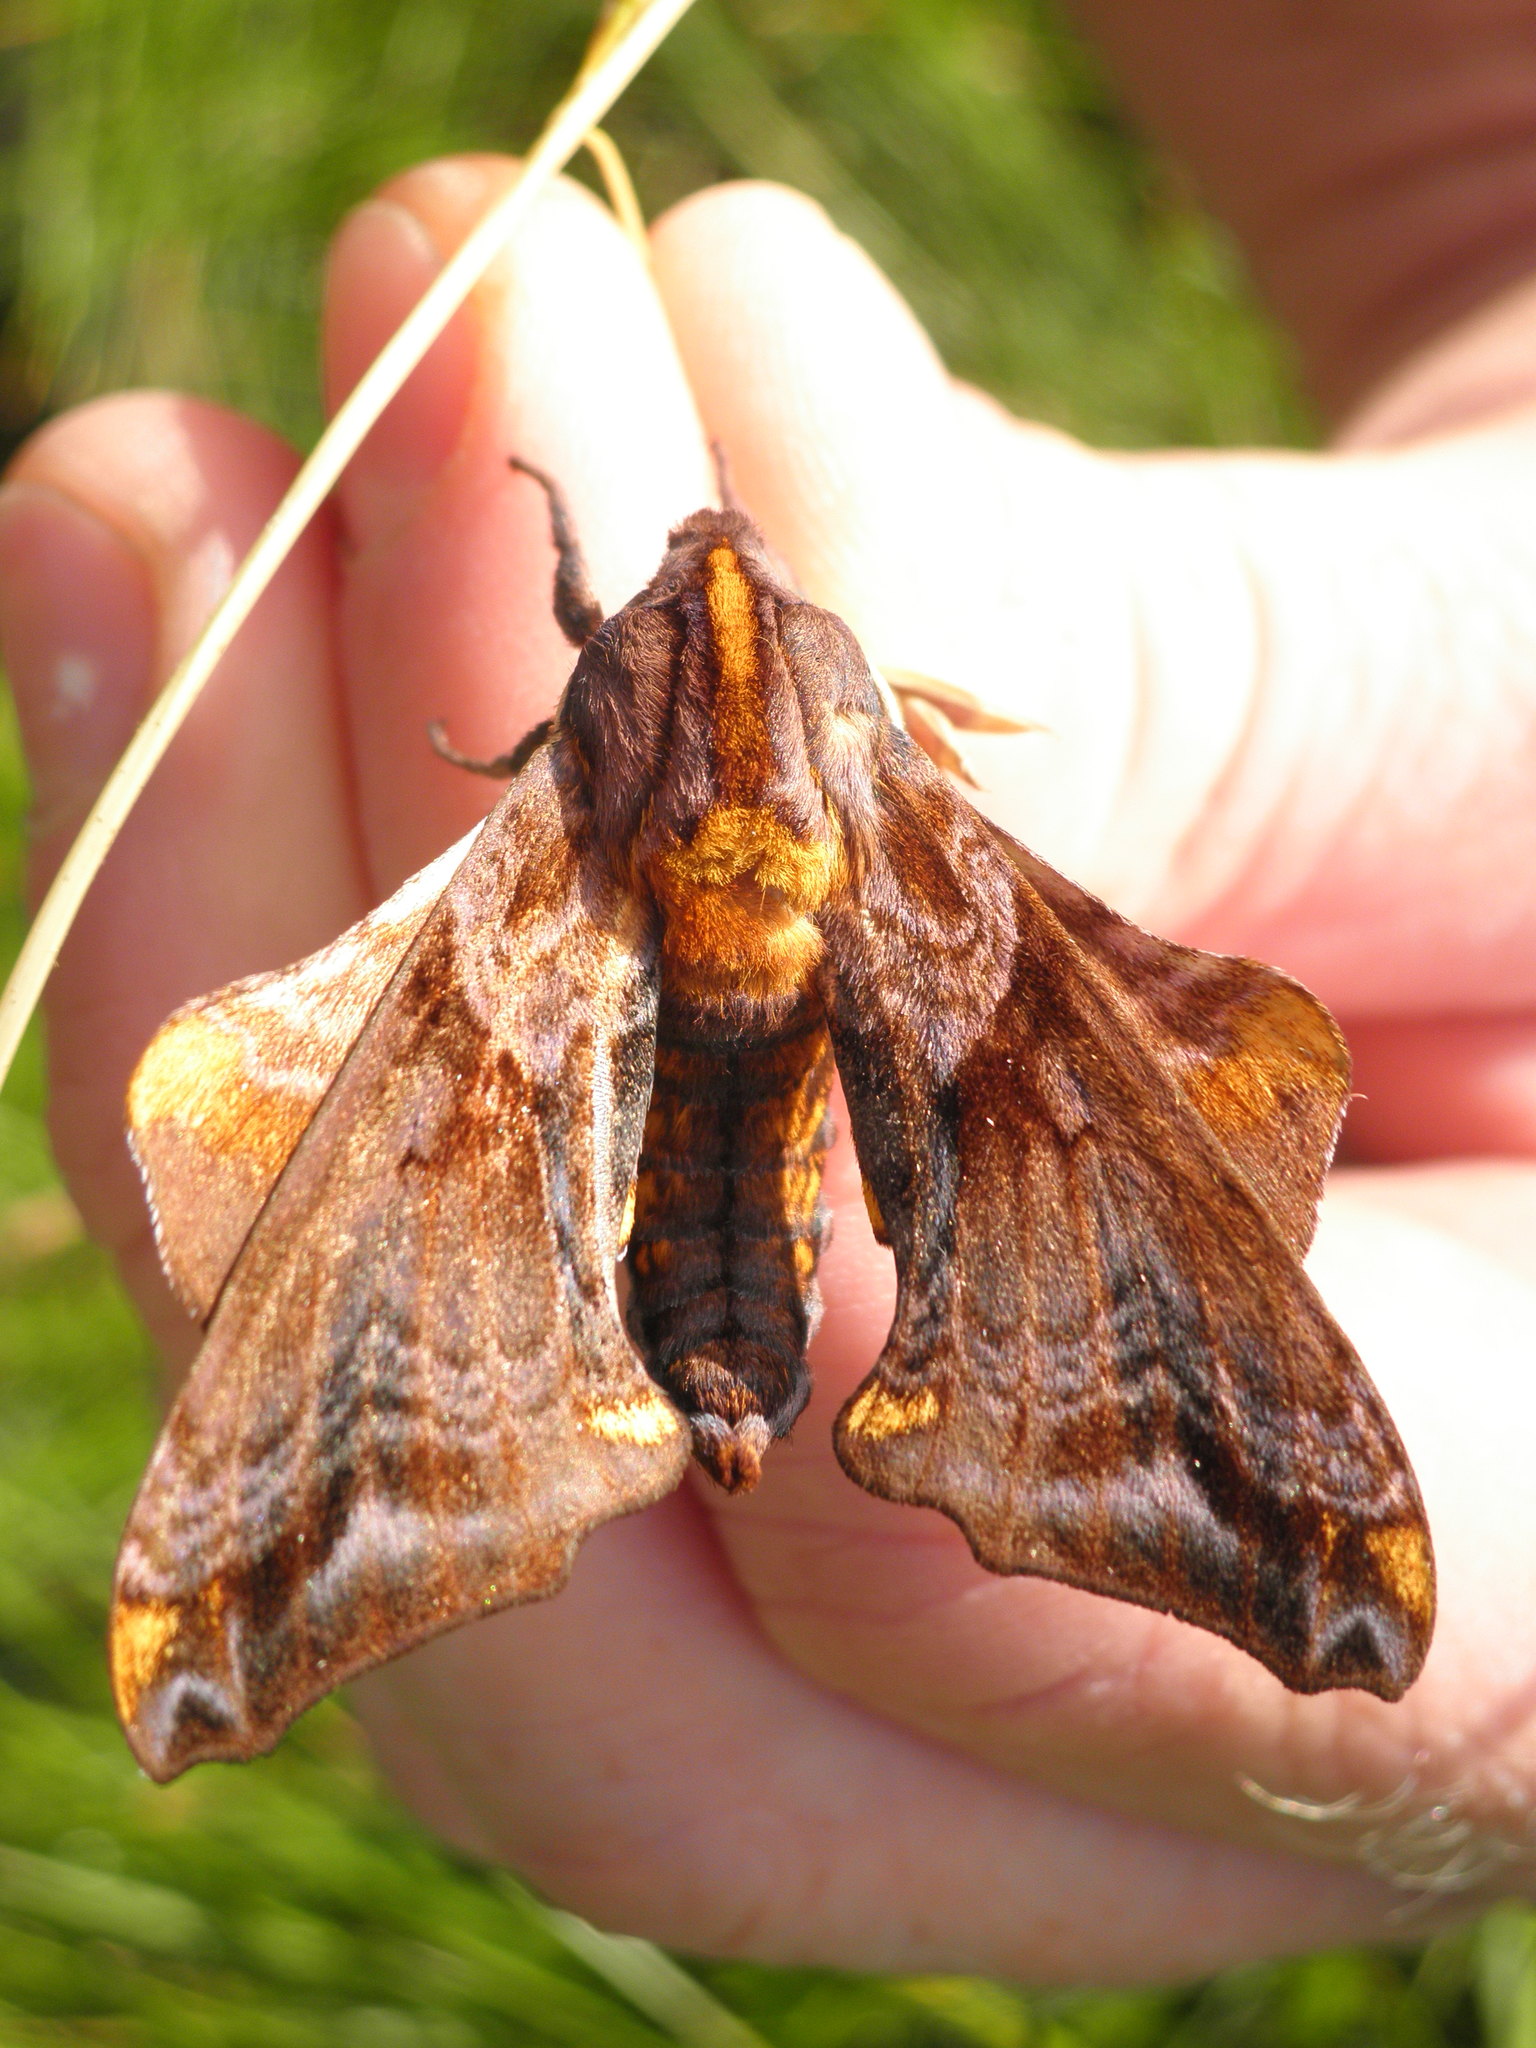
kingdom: Animalia
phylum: Arthropoda
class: Insecta
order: Lepidoptera
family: Sphingidae
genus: Paonias
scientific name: Paonias myops
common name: Small-eyed sphinx
